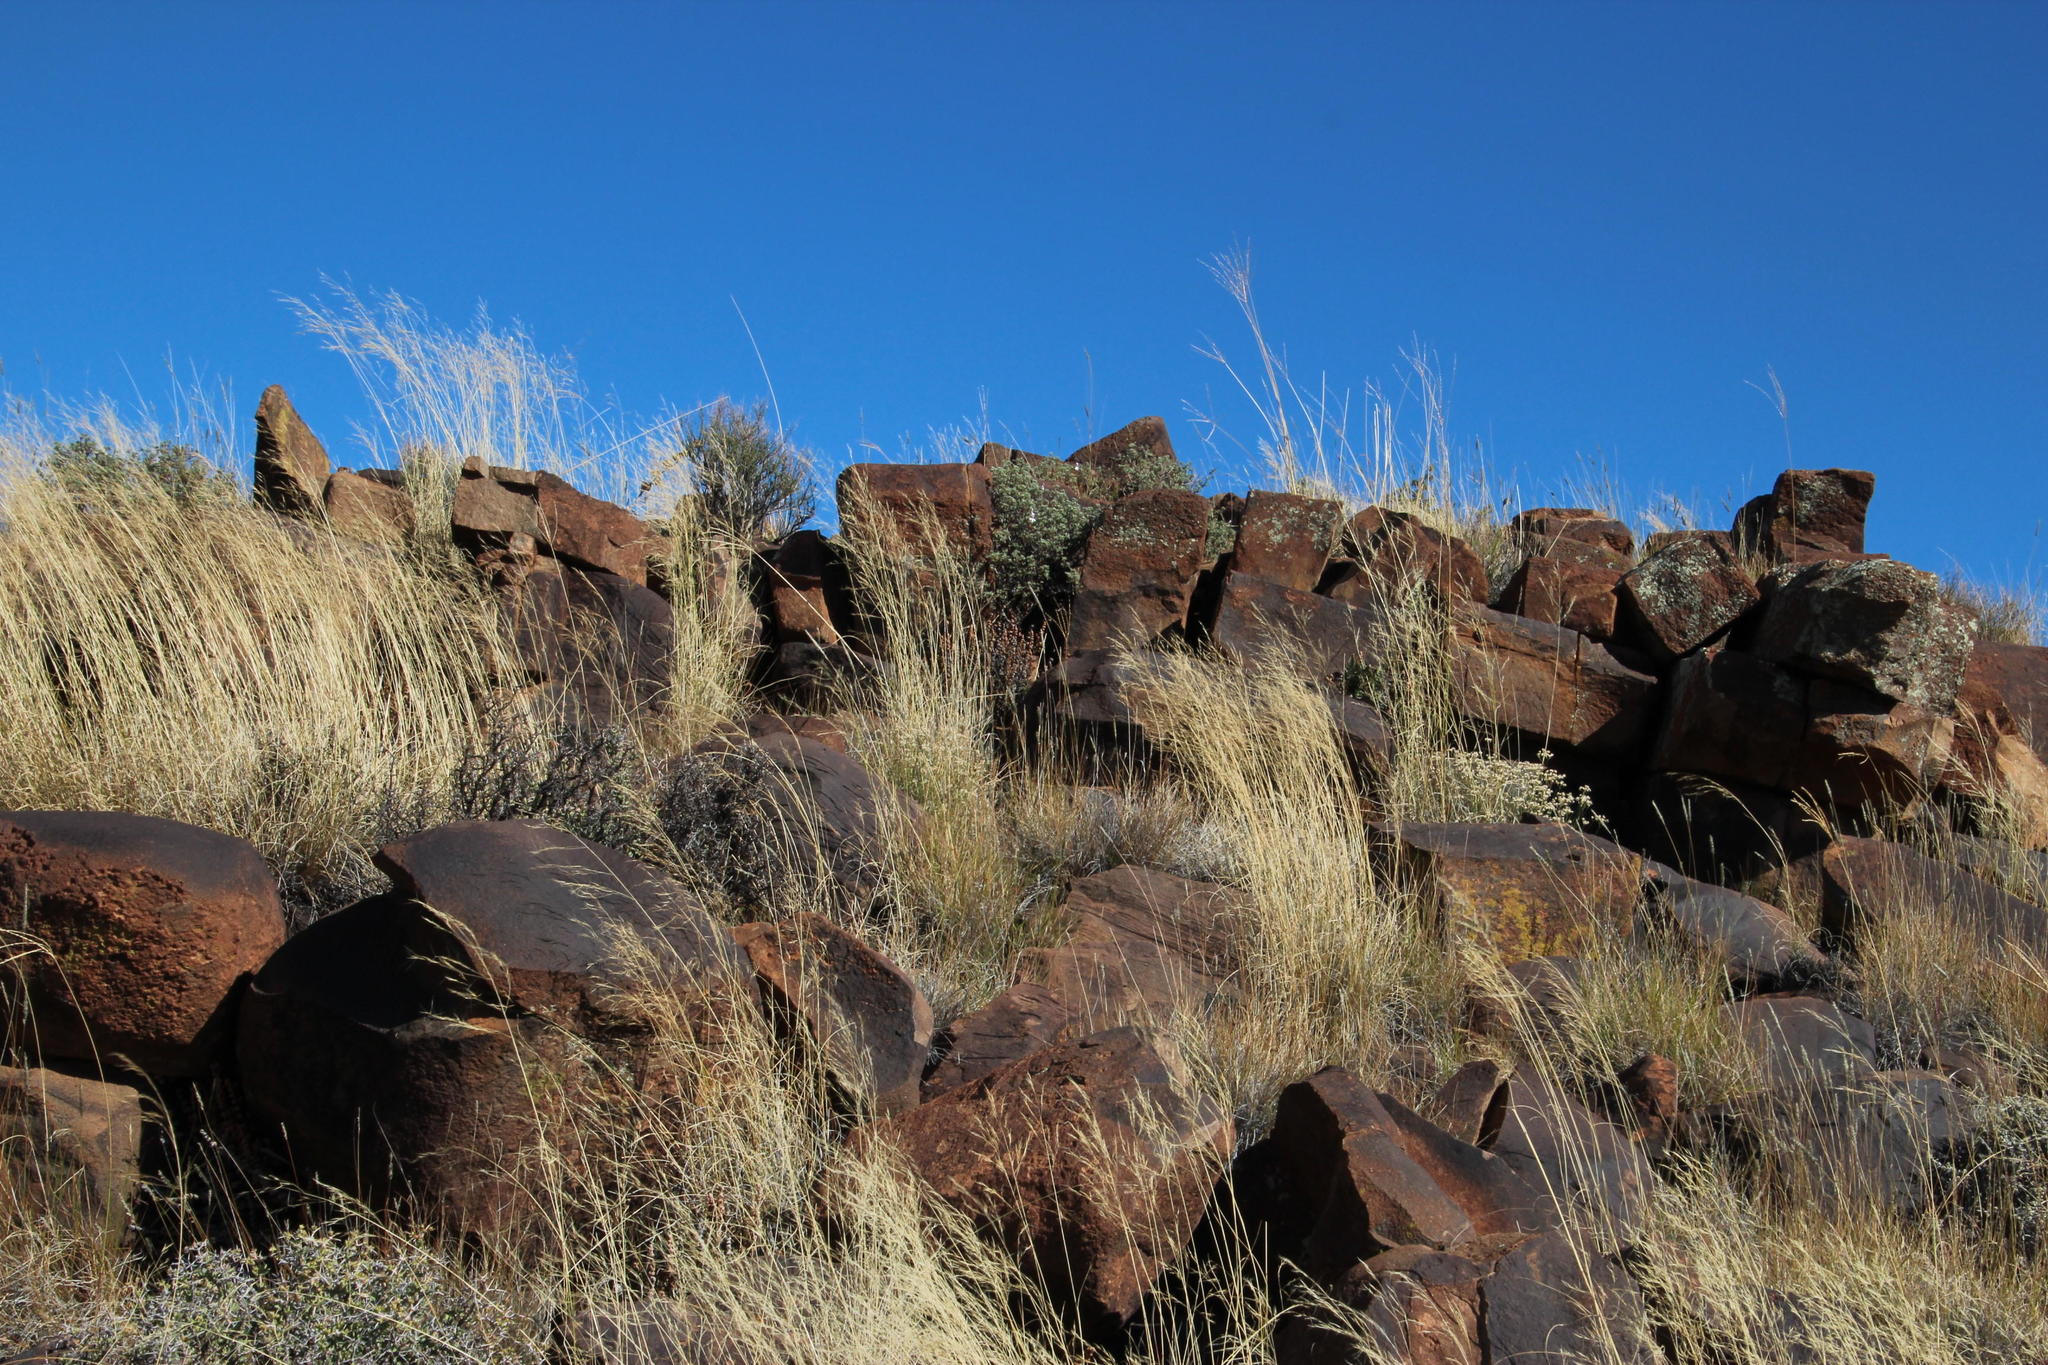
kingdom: Plantae
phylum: Tracheophyta
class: Magnoliopsida
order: Geraniales
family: Geraniaceae
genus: Pelargonium
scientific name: Pelargonium abrotanifolium
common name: Southernwood geranium
